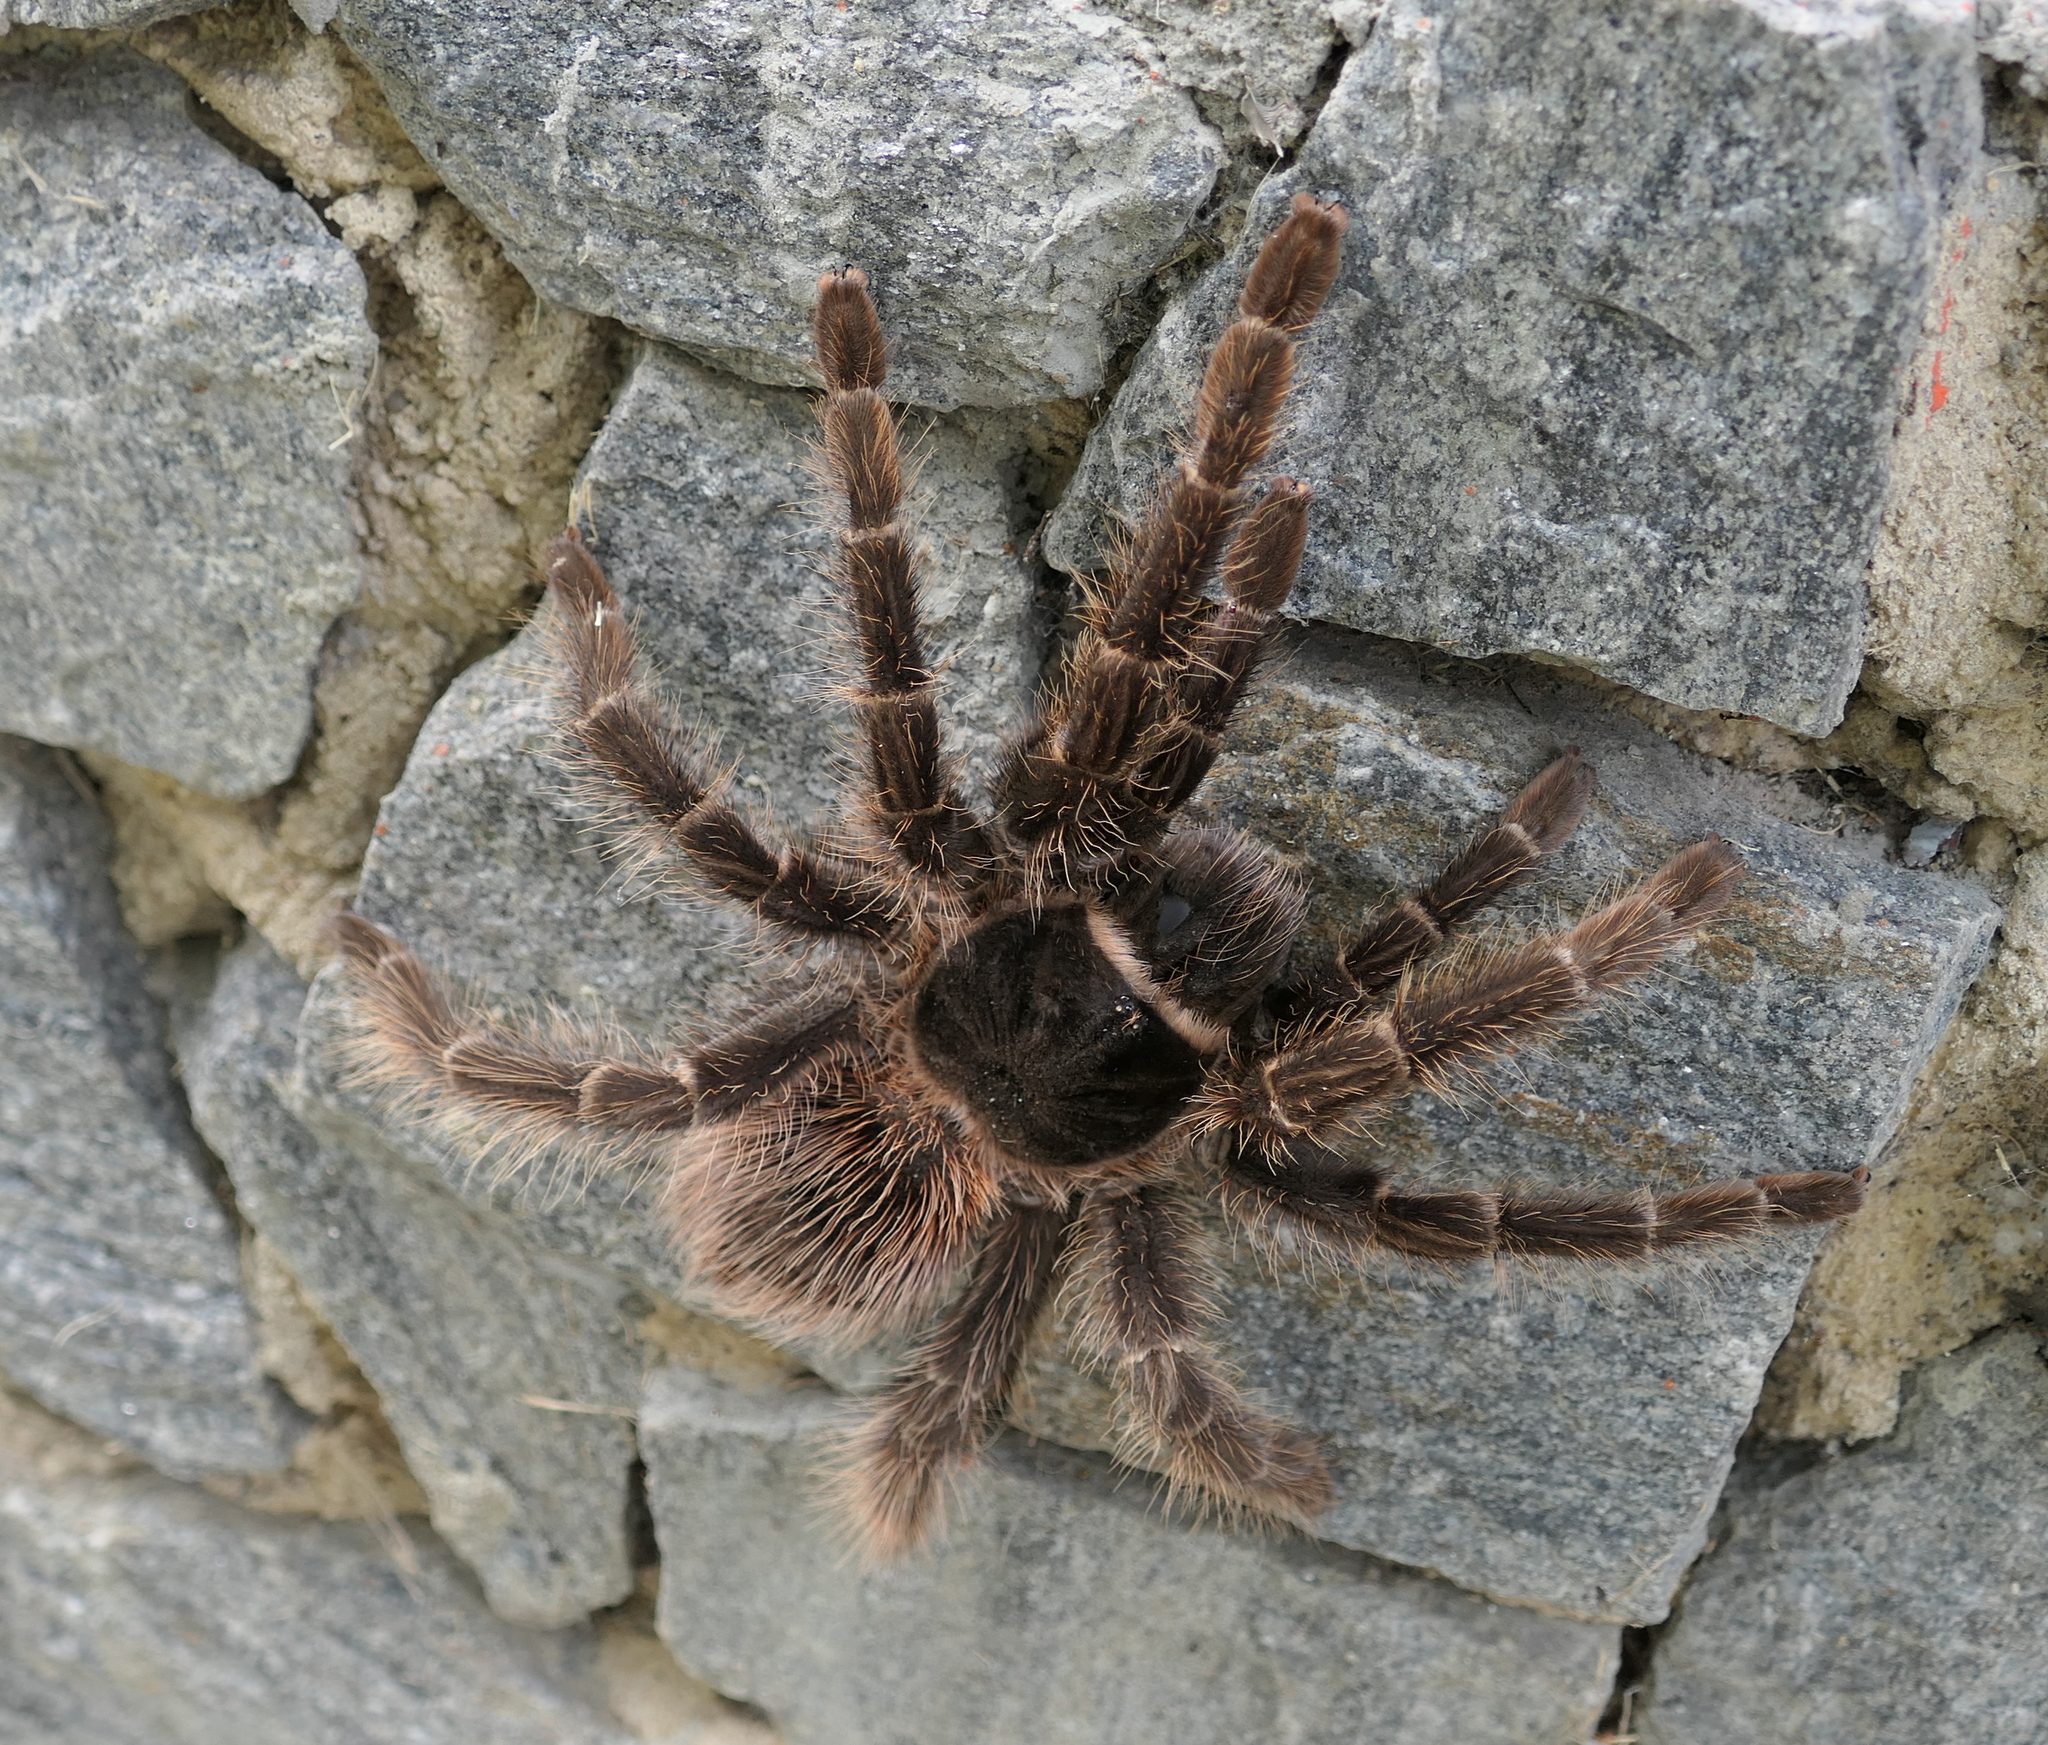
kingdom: Animalia
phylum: Arthropoda
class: Arachnida
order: Araneae
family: Theraphosidae
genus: Lasiodora
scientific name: Lasiodora parahybana
